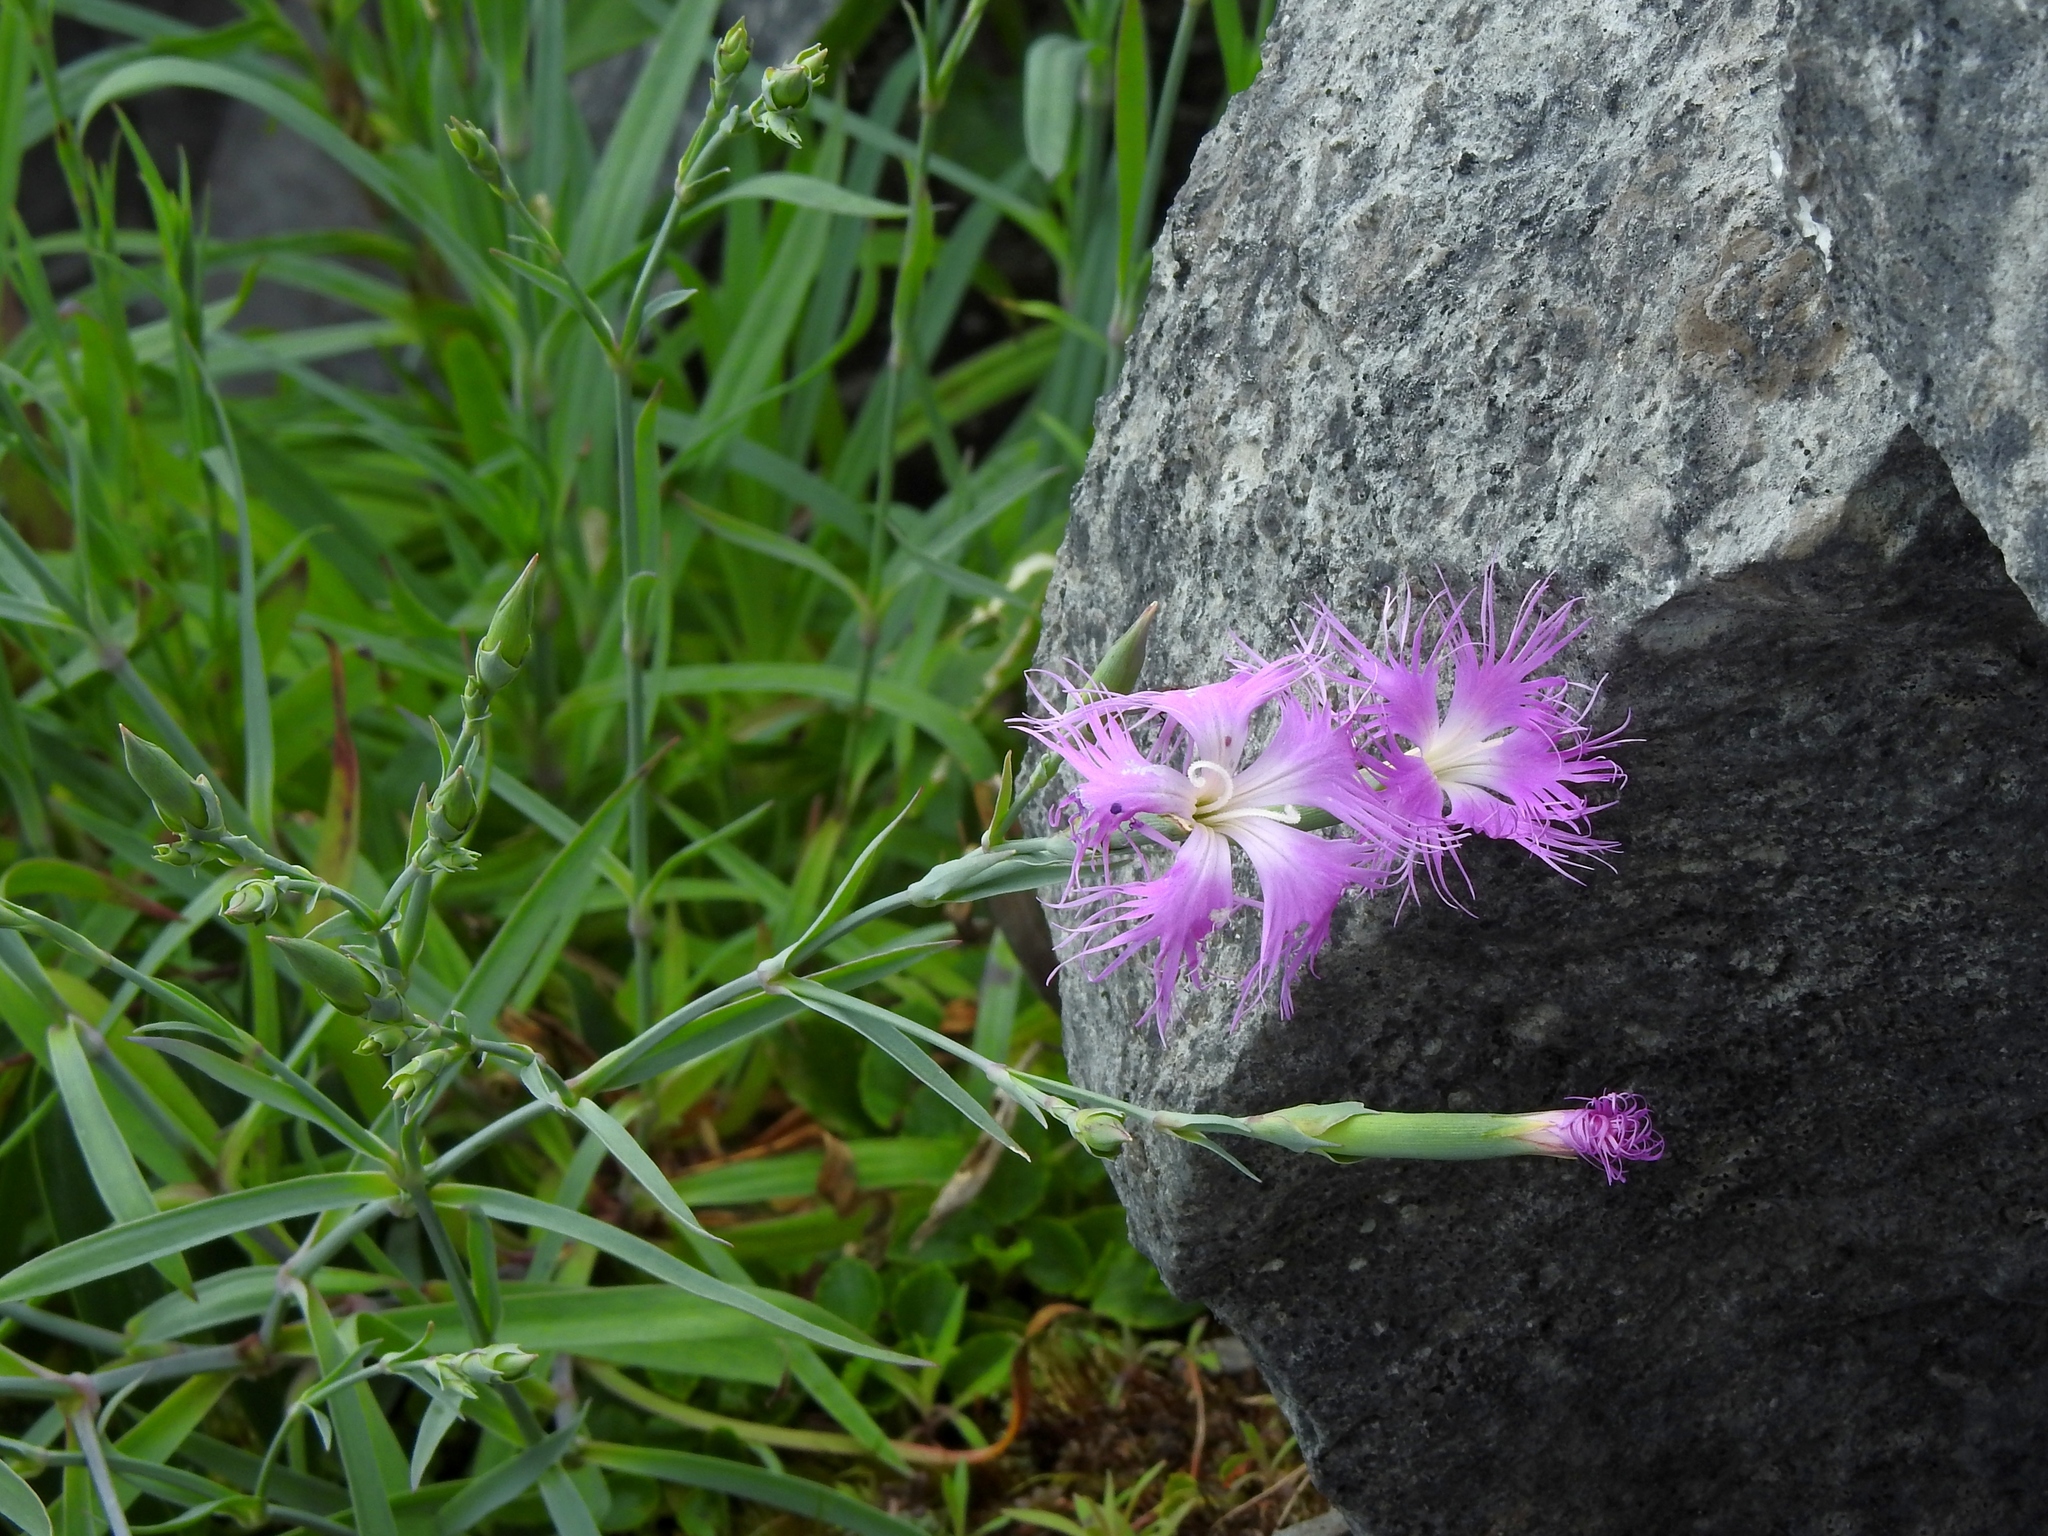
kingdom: Plantae
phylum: Tracheophyta
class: Magnoliopsida
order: Caryophyllales
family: Caryophyllaceae
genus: Dianthus
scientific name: Dianthus seisuimontanus
